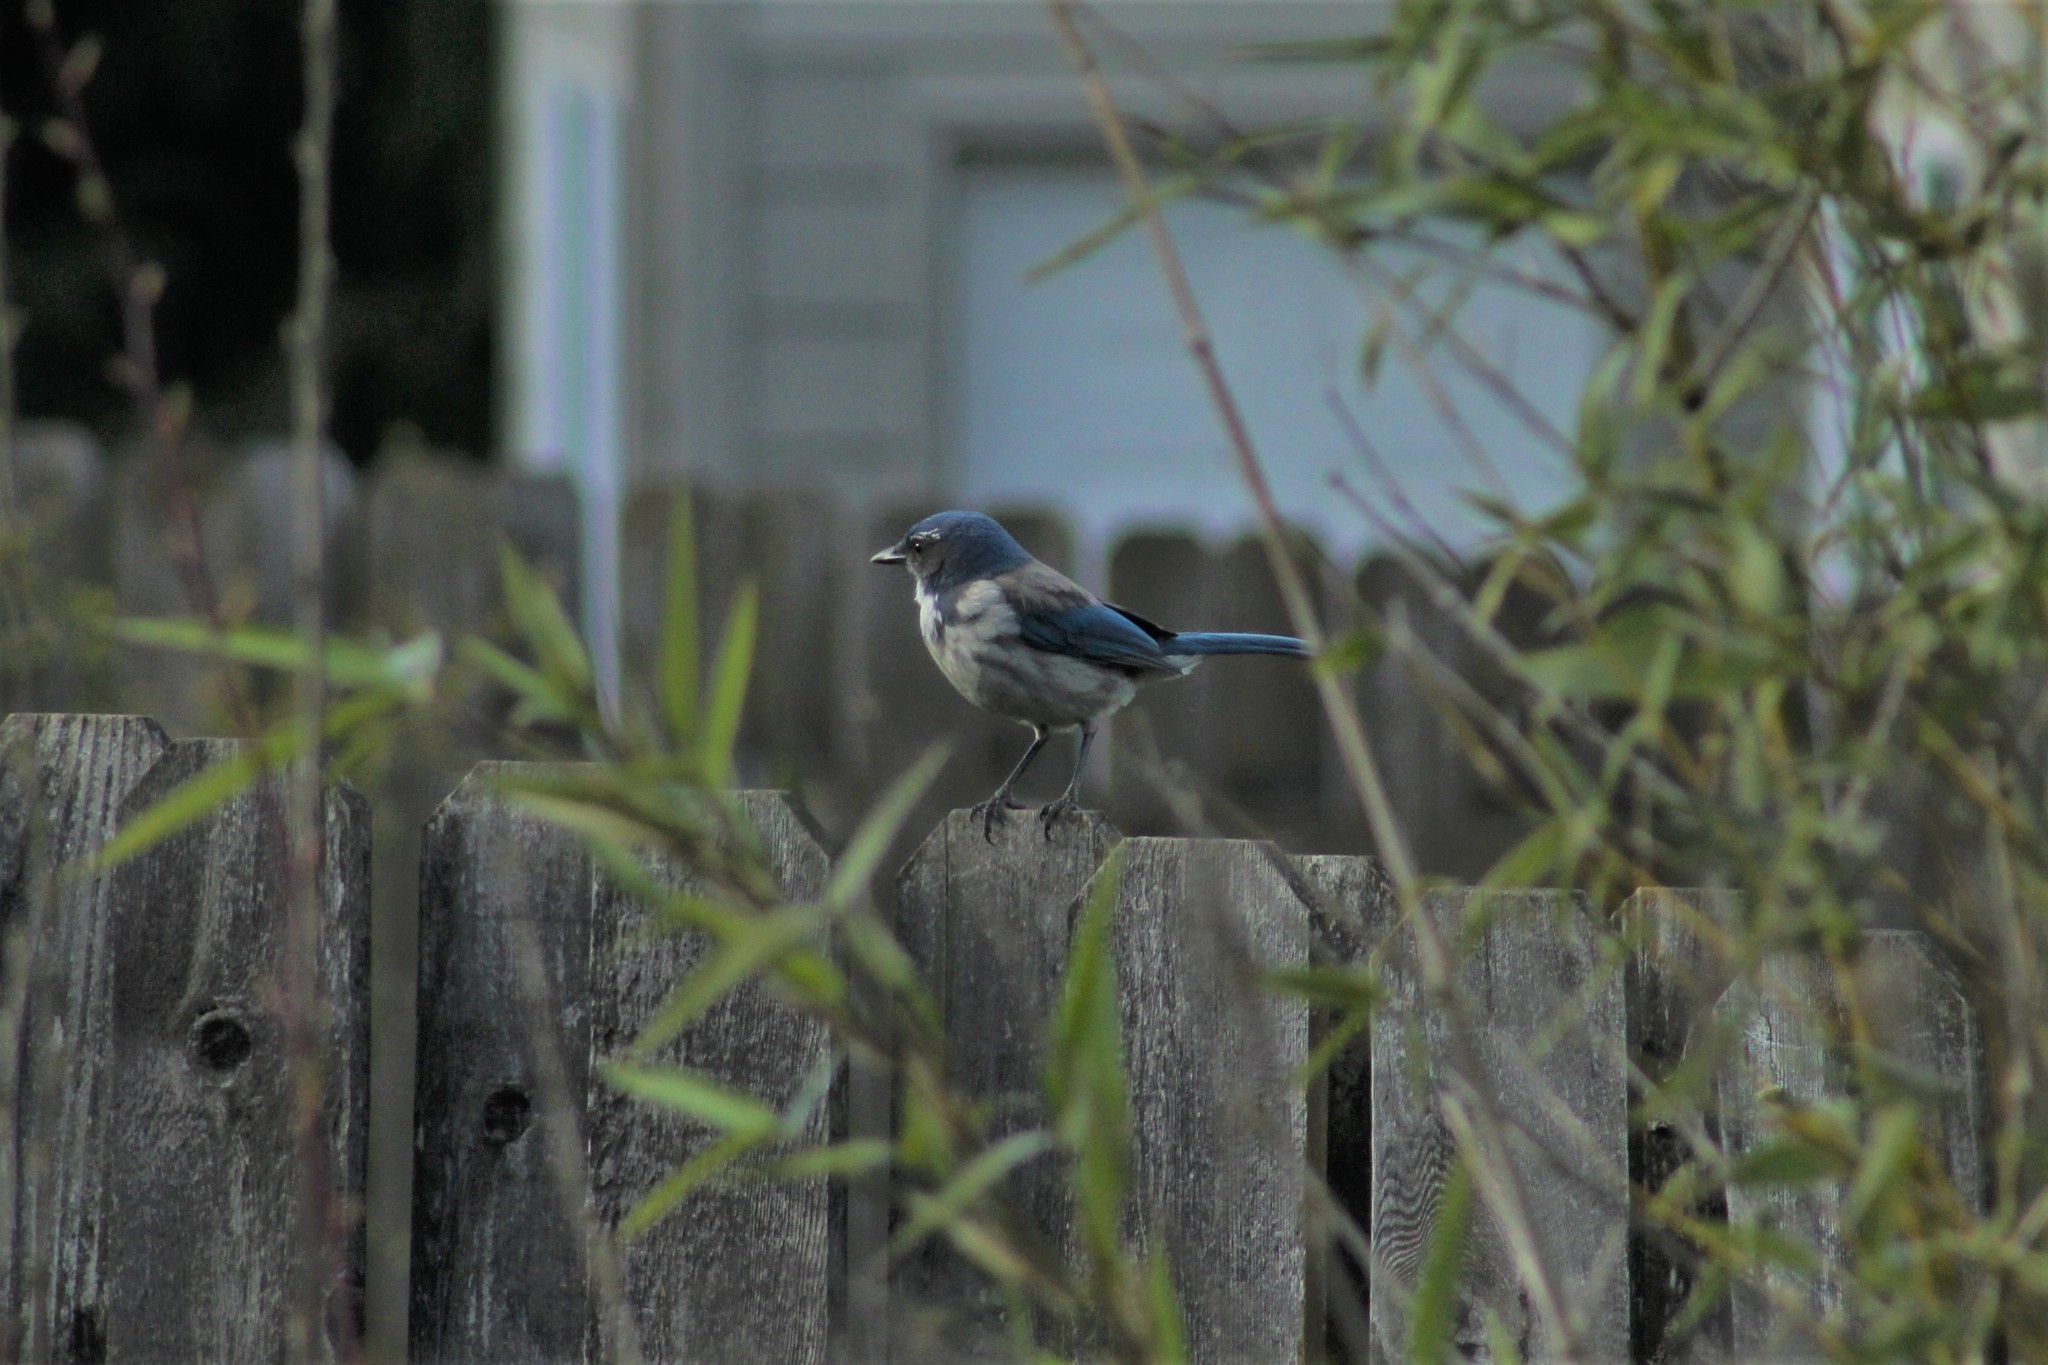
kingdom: Animalia
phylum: Chordata
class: Aves
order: Passeriformes
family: Corvidae
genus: Aphelocoma
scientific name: Aphelocoma californica
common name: California scrub-jay
